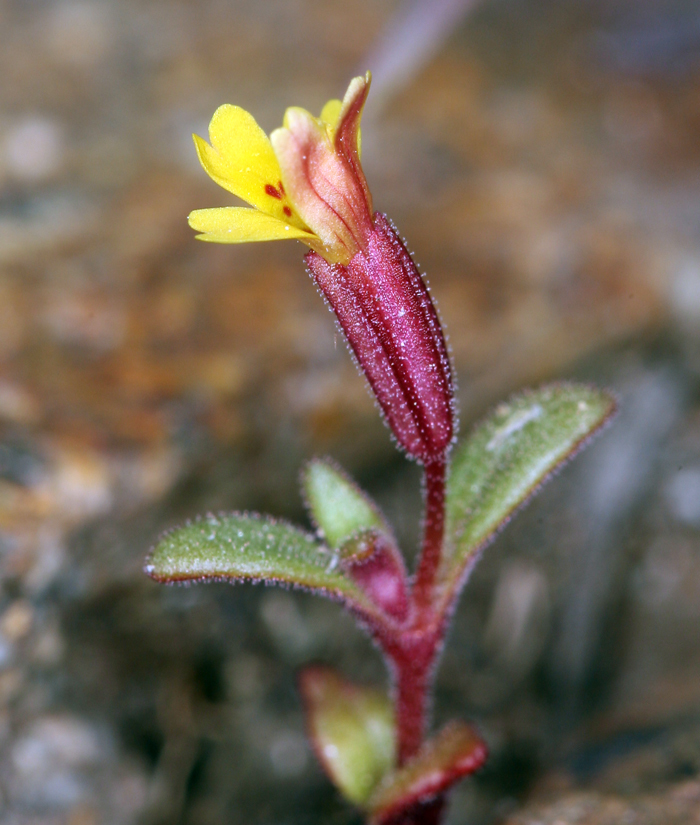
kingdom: Plantae
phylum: Tracheophyta
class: Magnoliopsida
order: Lamiales
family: Phrymaceae
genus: Erythranthe
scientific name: Erythranthe suksdorfii
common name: Suksdorf's monkeyflower
